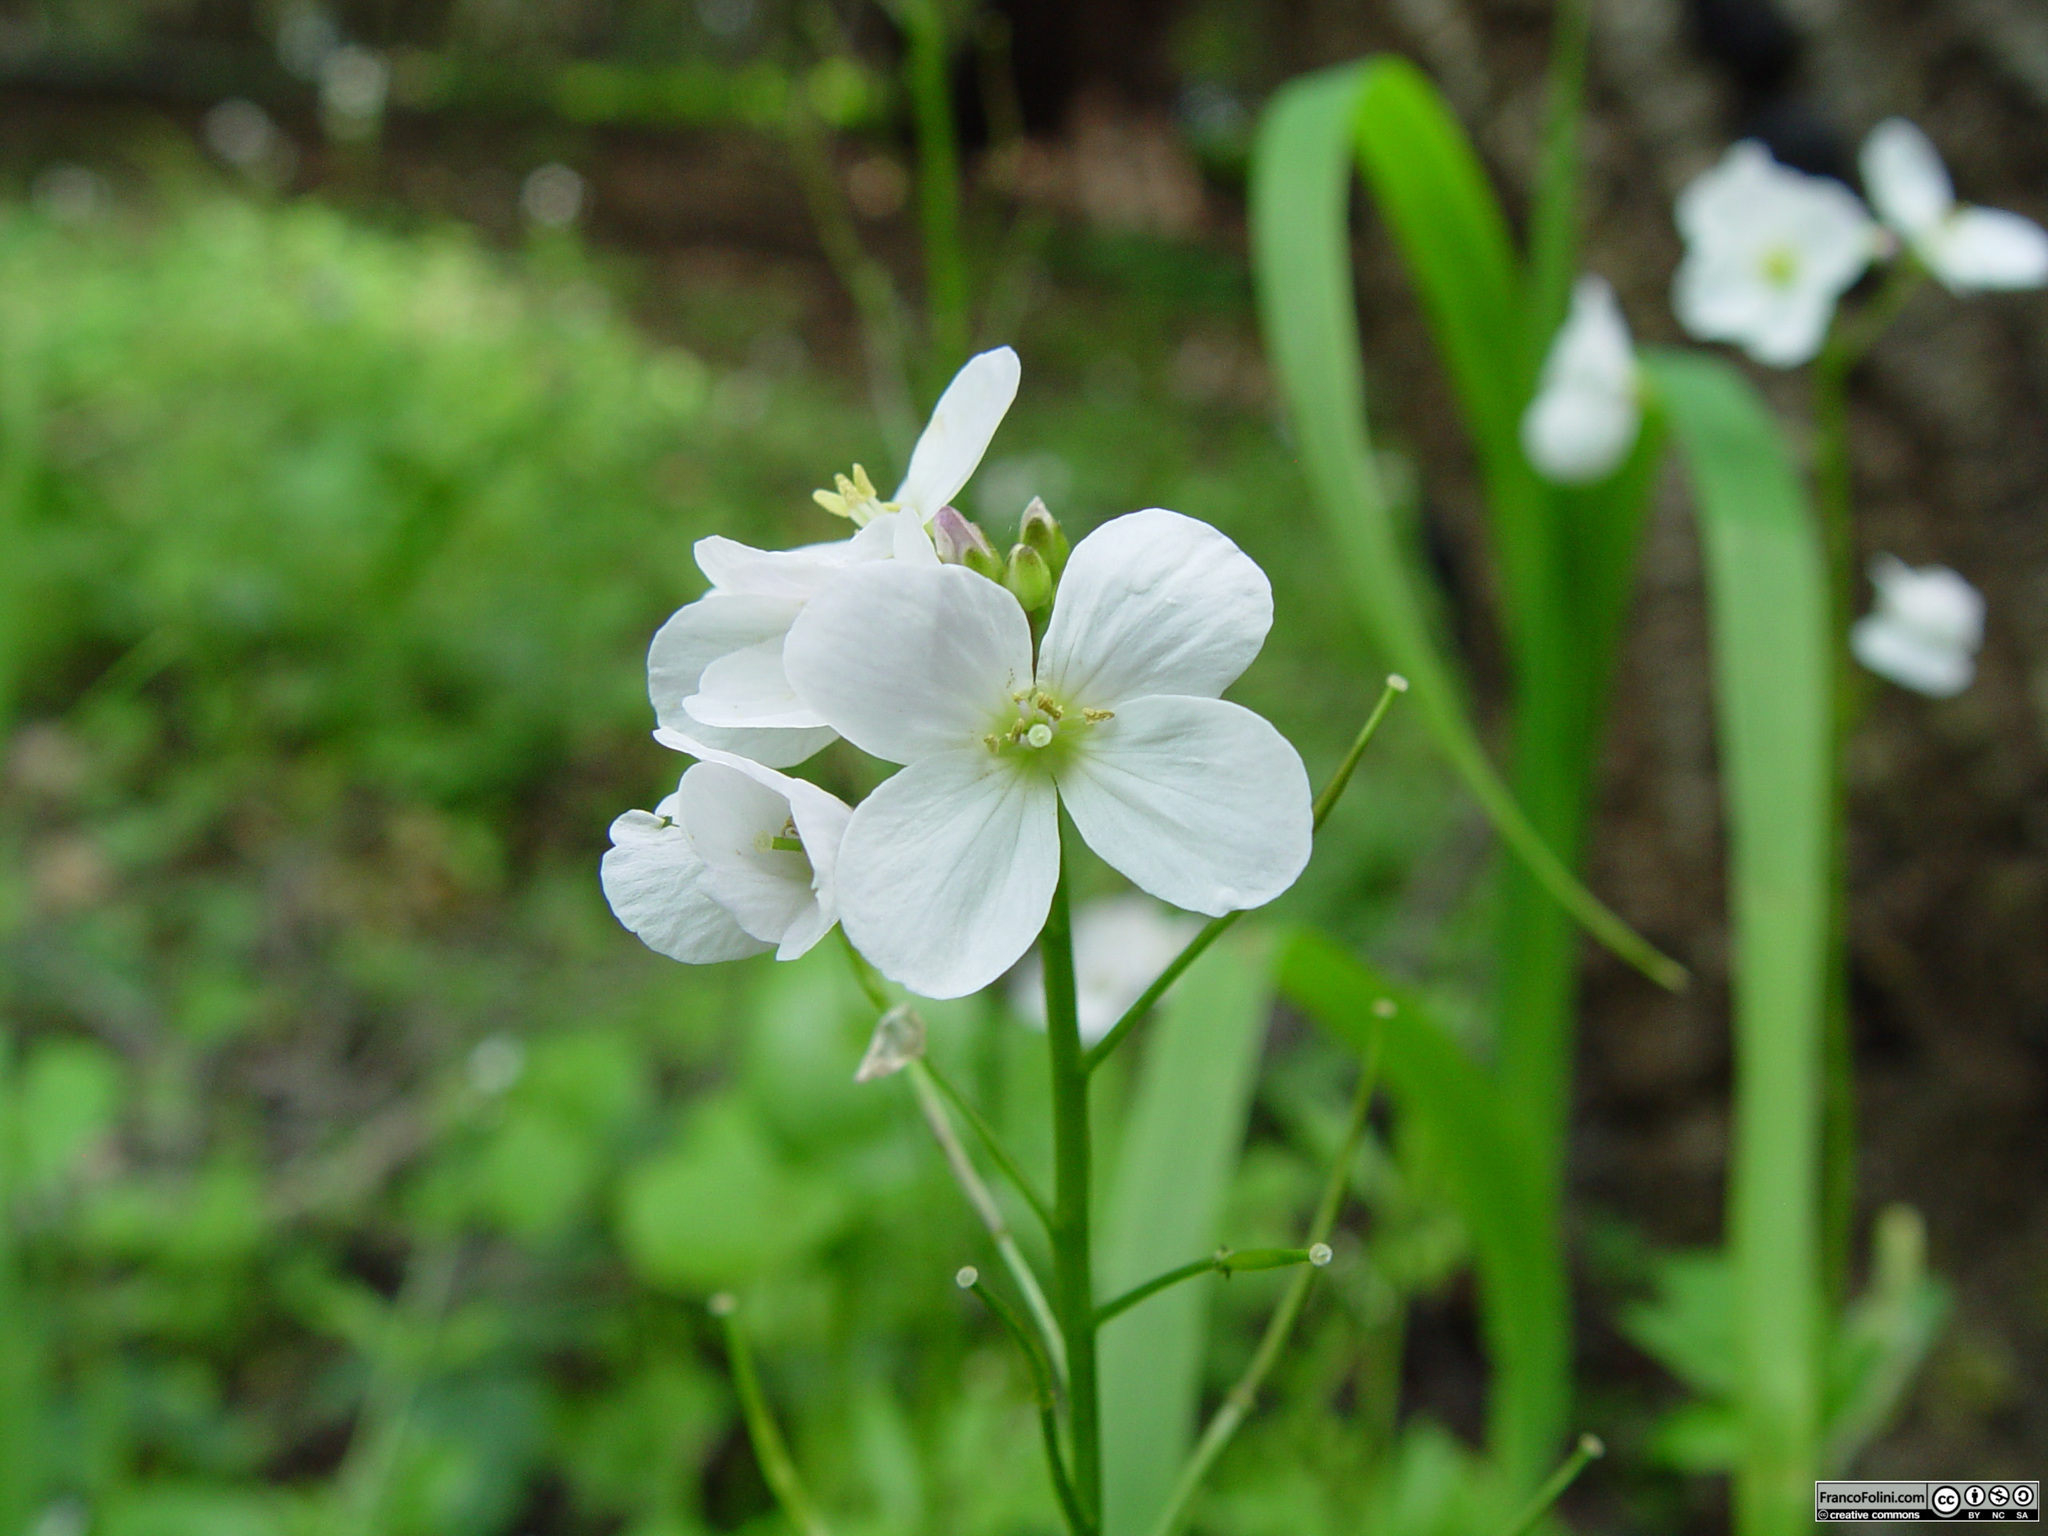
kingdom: Plantae
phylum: Tracheophyta
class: Magnoliopsida
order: Brassicales
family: Brassicaceae
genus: Cardamine
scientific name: Cardamine californica
